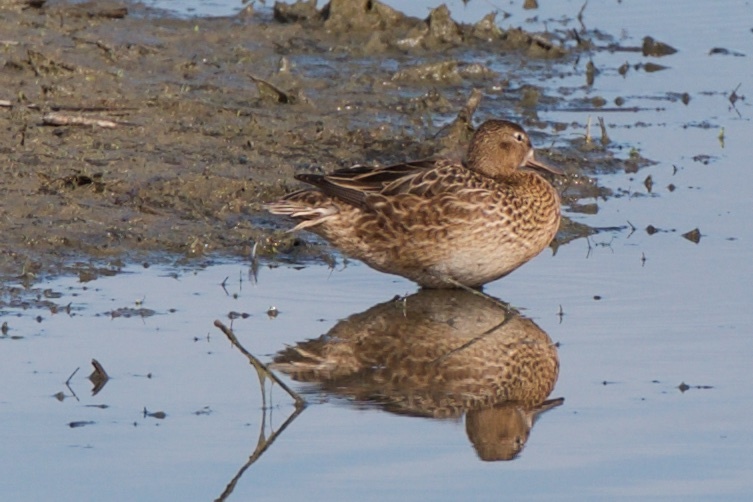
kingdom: Animalia
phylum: Chordata
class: Aves
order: Anseriformes
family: Anatidae
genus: Spatula
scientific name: Spatula cyanoptera
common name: Cinnamon teal
